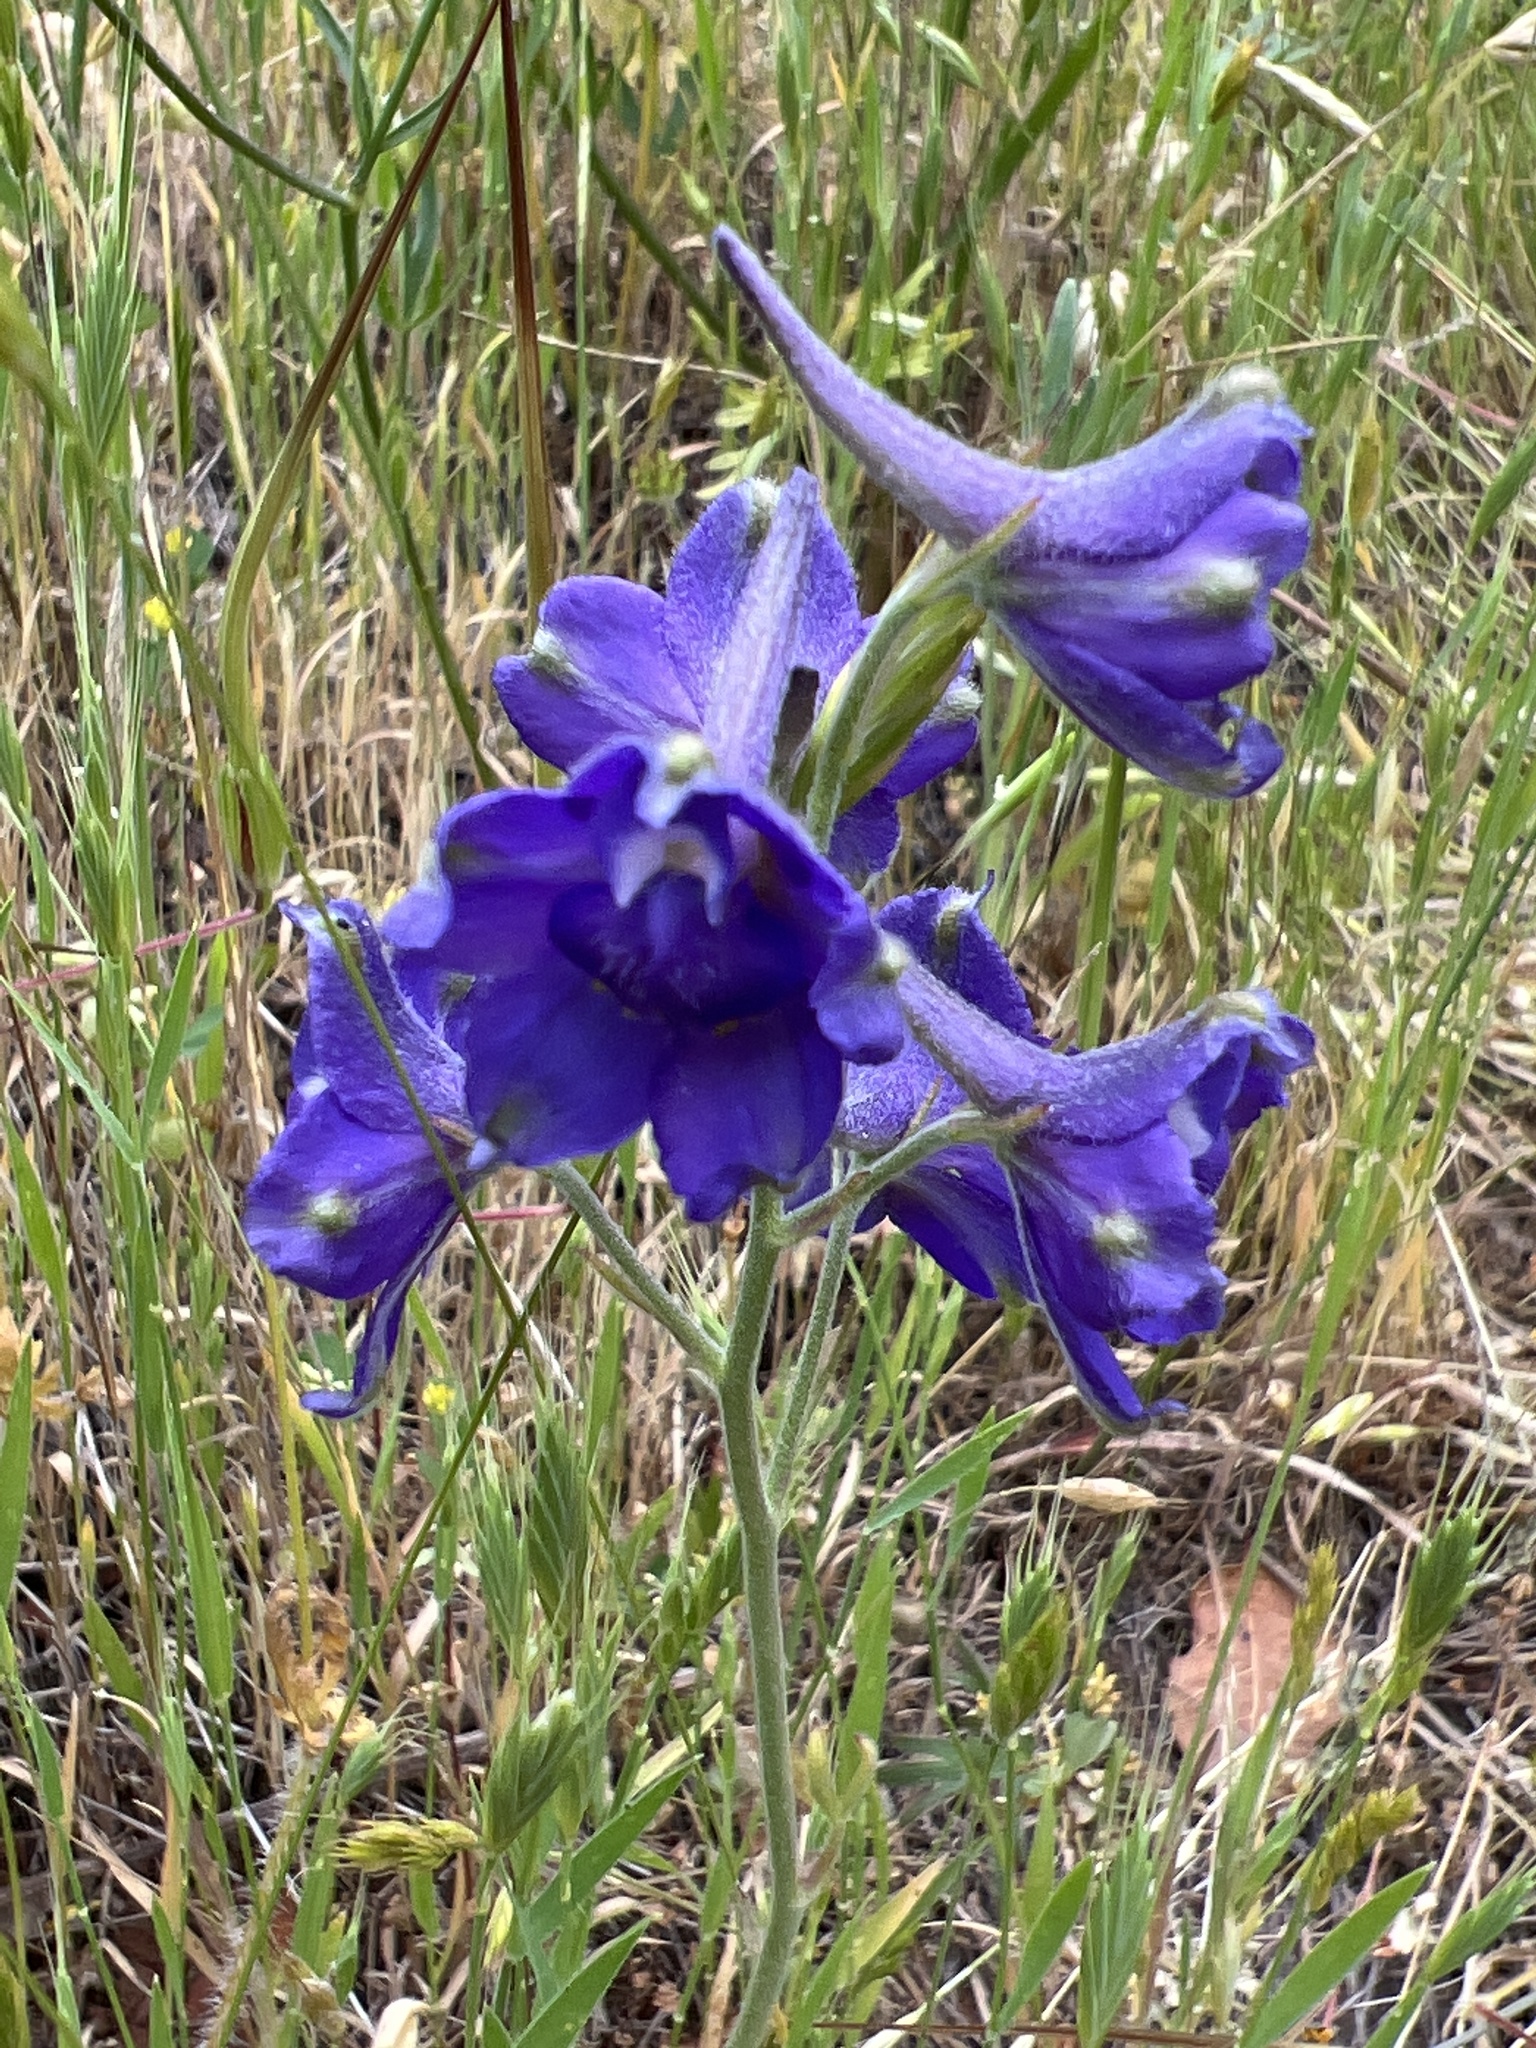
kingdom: Plantae
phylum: Tracheophyta
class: Magnoliopsida
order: Ranunculales
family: Ranunculaceae
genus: Delphinium
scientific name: Delphinium variegatum
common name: Royal larkspur
